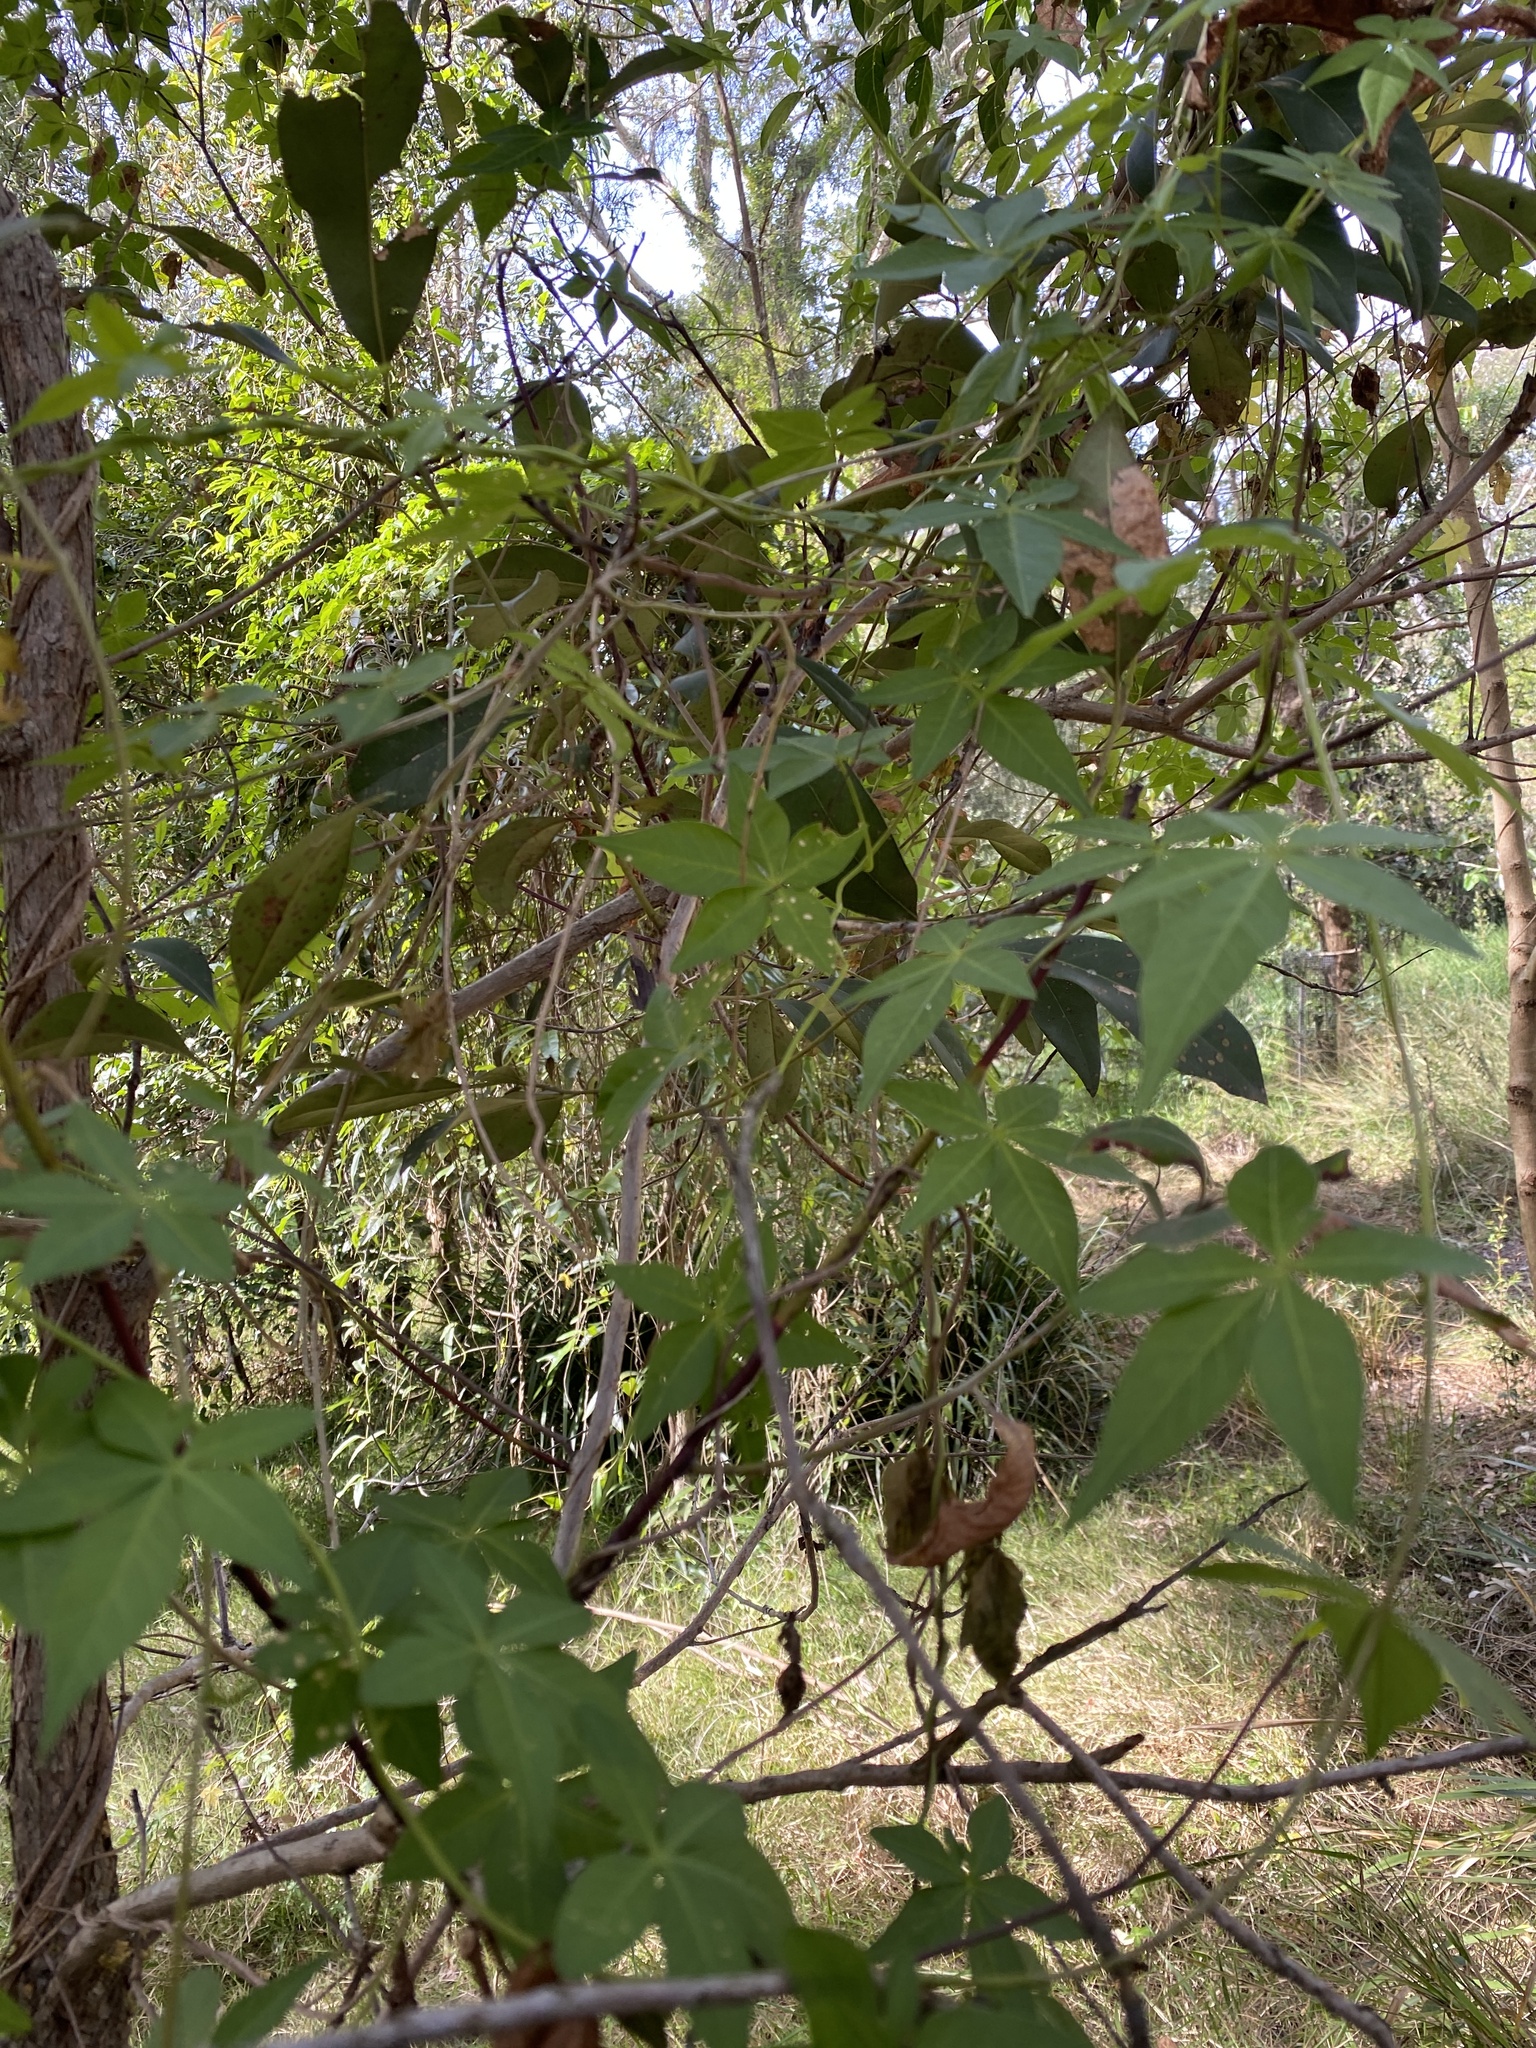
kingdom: Plantae
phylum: Tracheophyta
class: Magnoliopsida
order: Solanales
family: Convolvulaceae
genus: Ipomoea
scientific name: Ipomoea cairica
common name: Mile a minute vine
